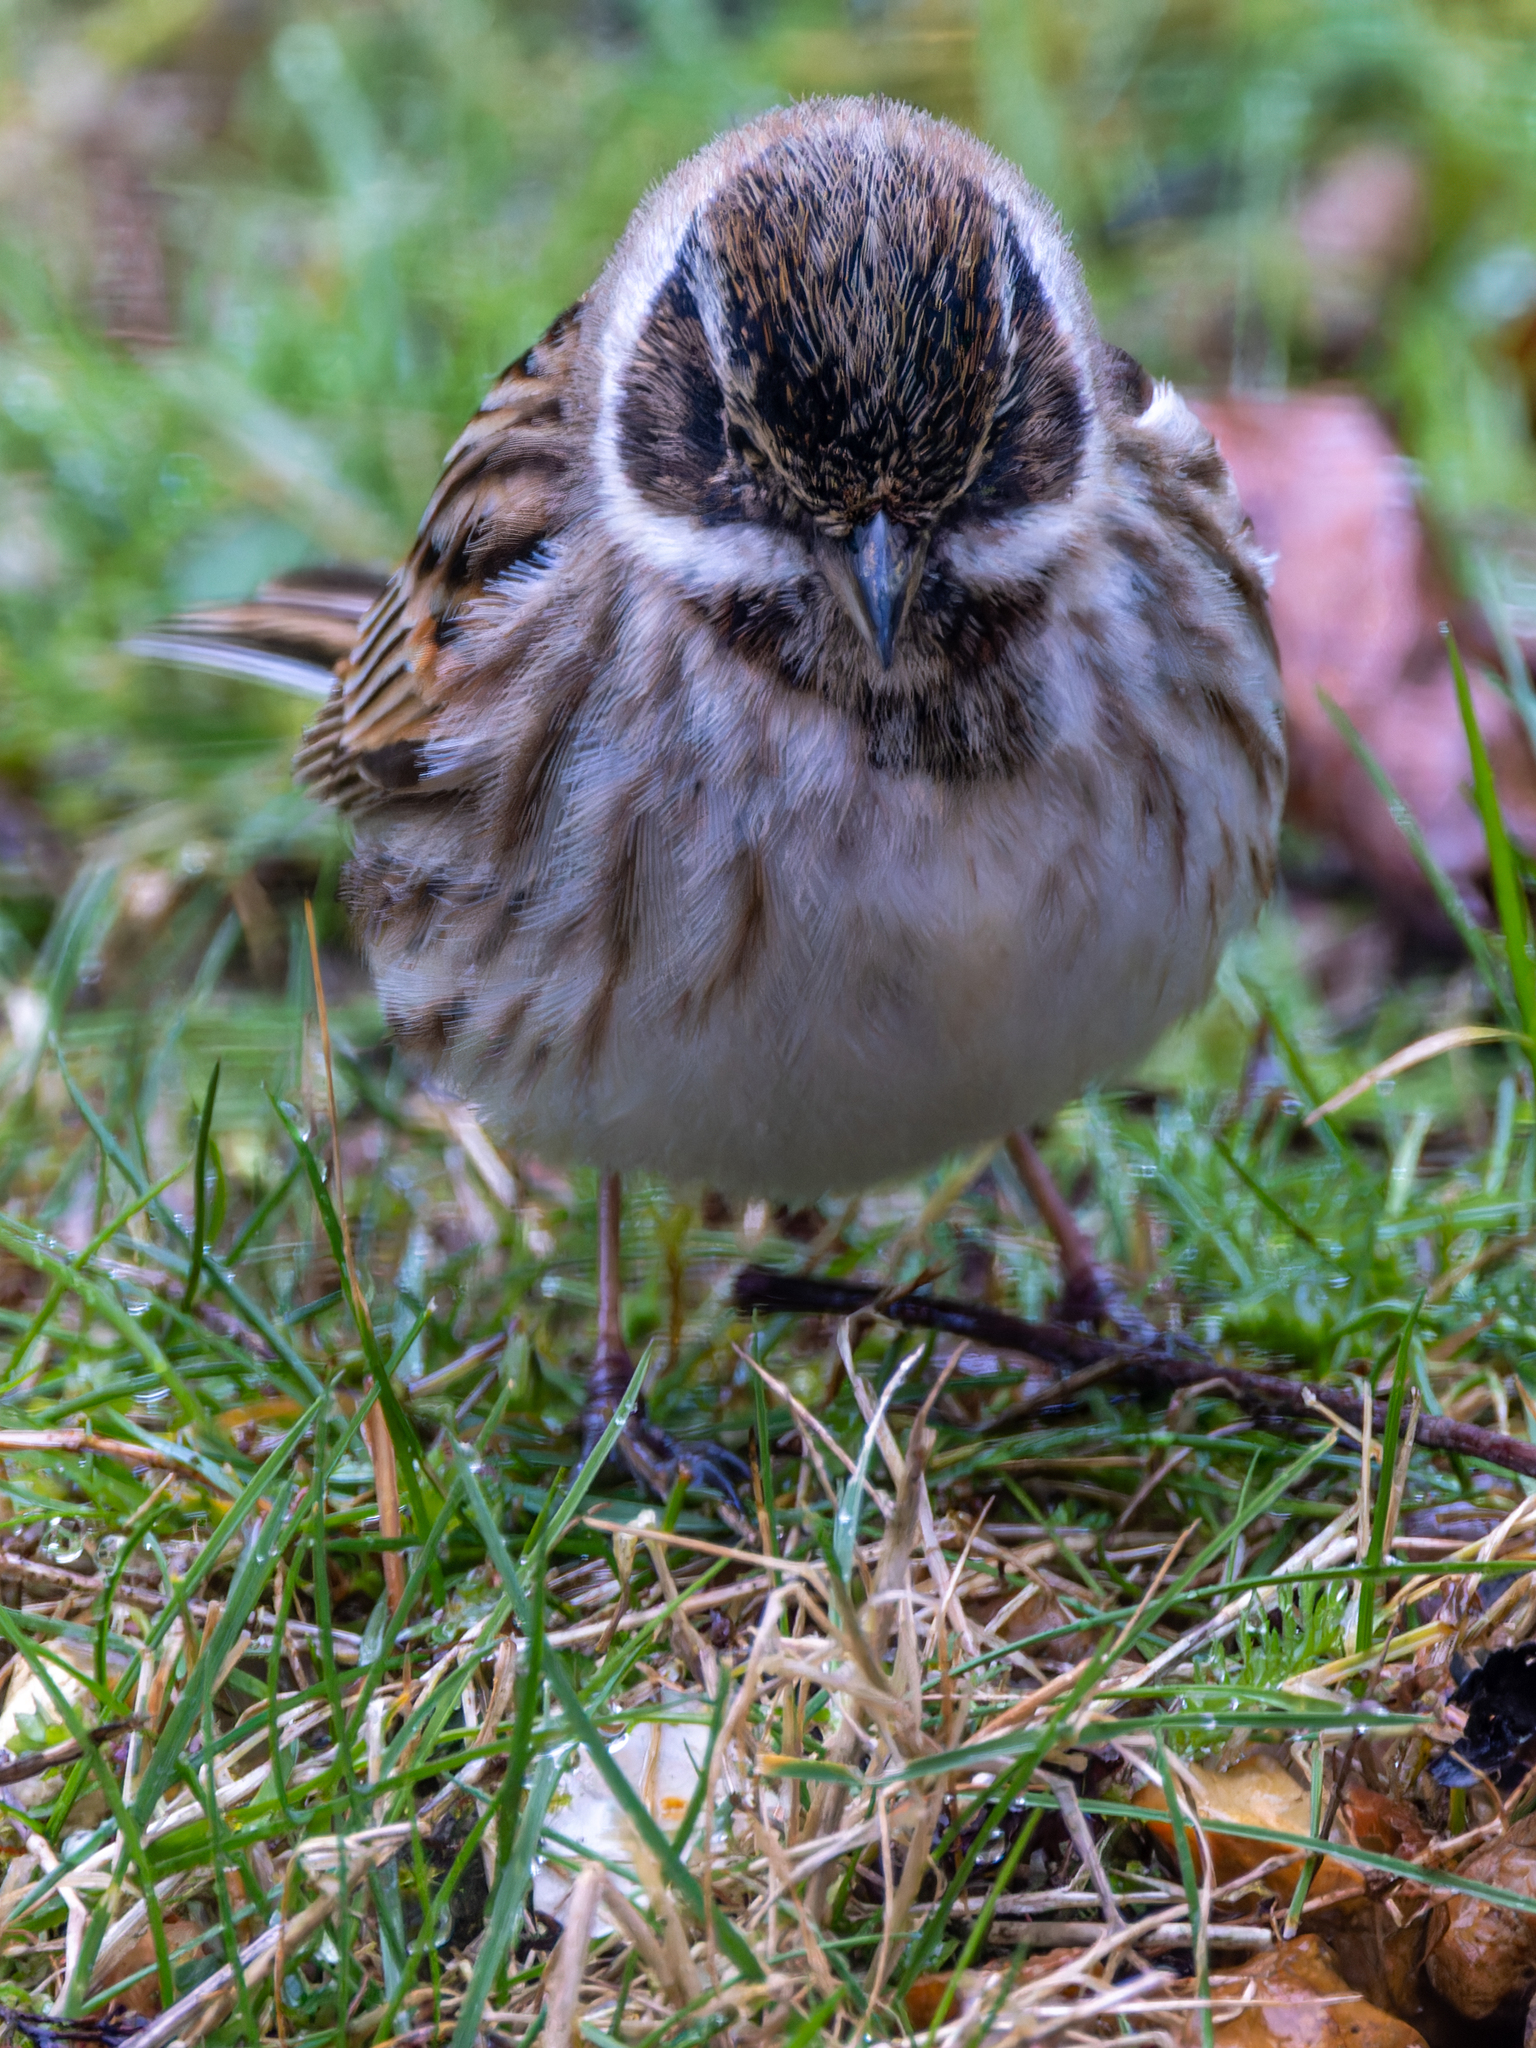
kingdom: Animalia
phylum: Chordata
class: Aves
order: Passeriformes
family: Emberizidae
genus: Emberiza
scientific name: Emberiza schoeniclus
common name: Reed bunting
